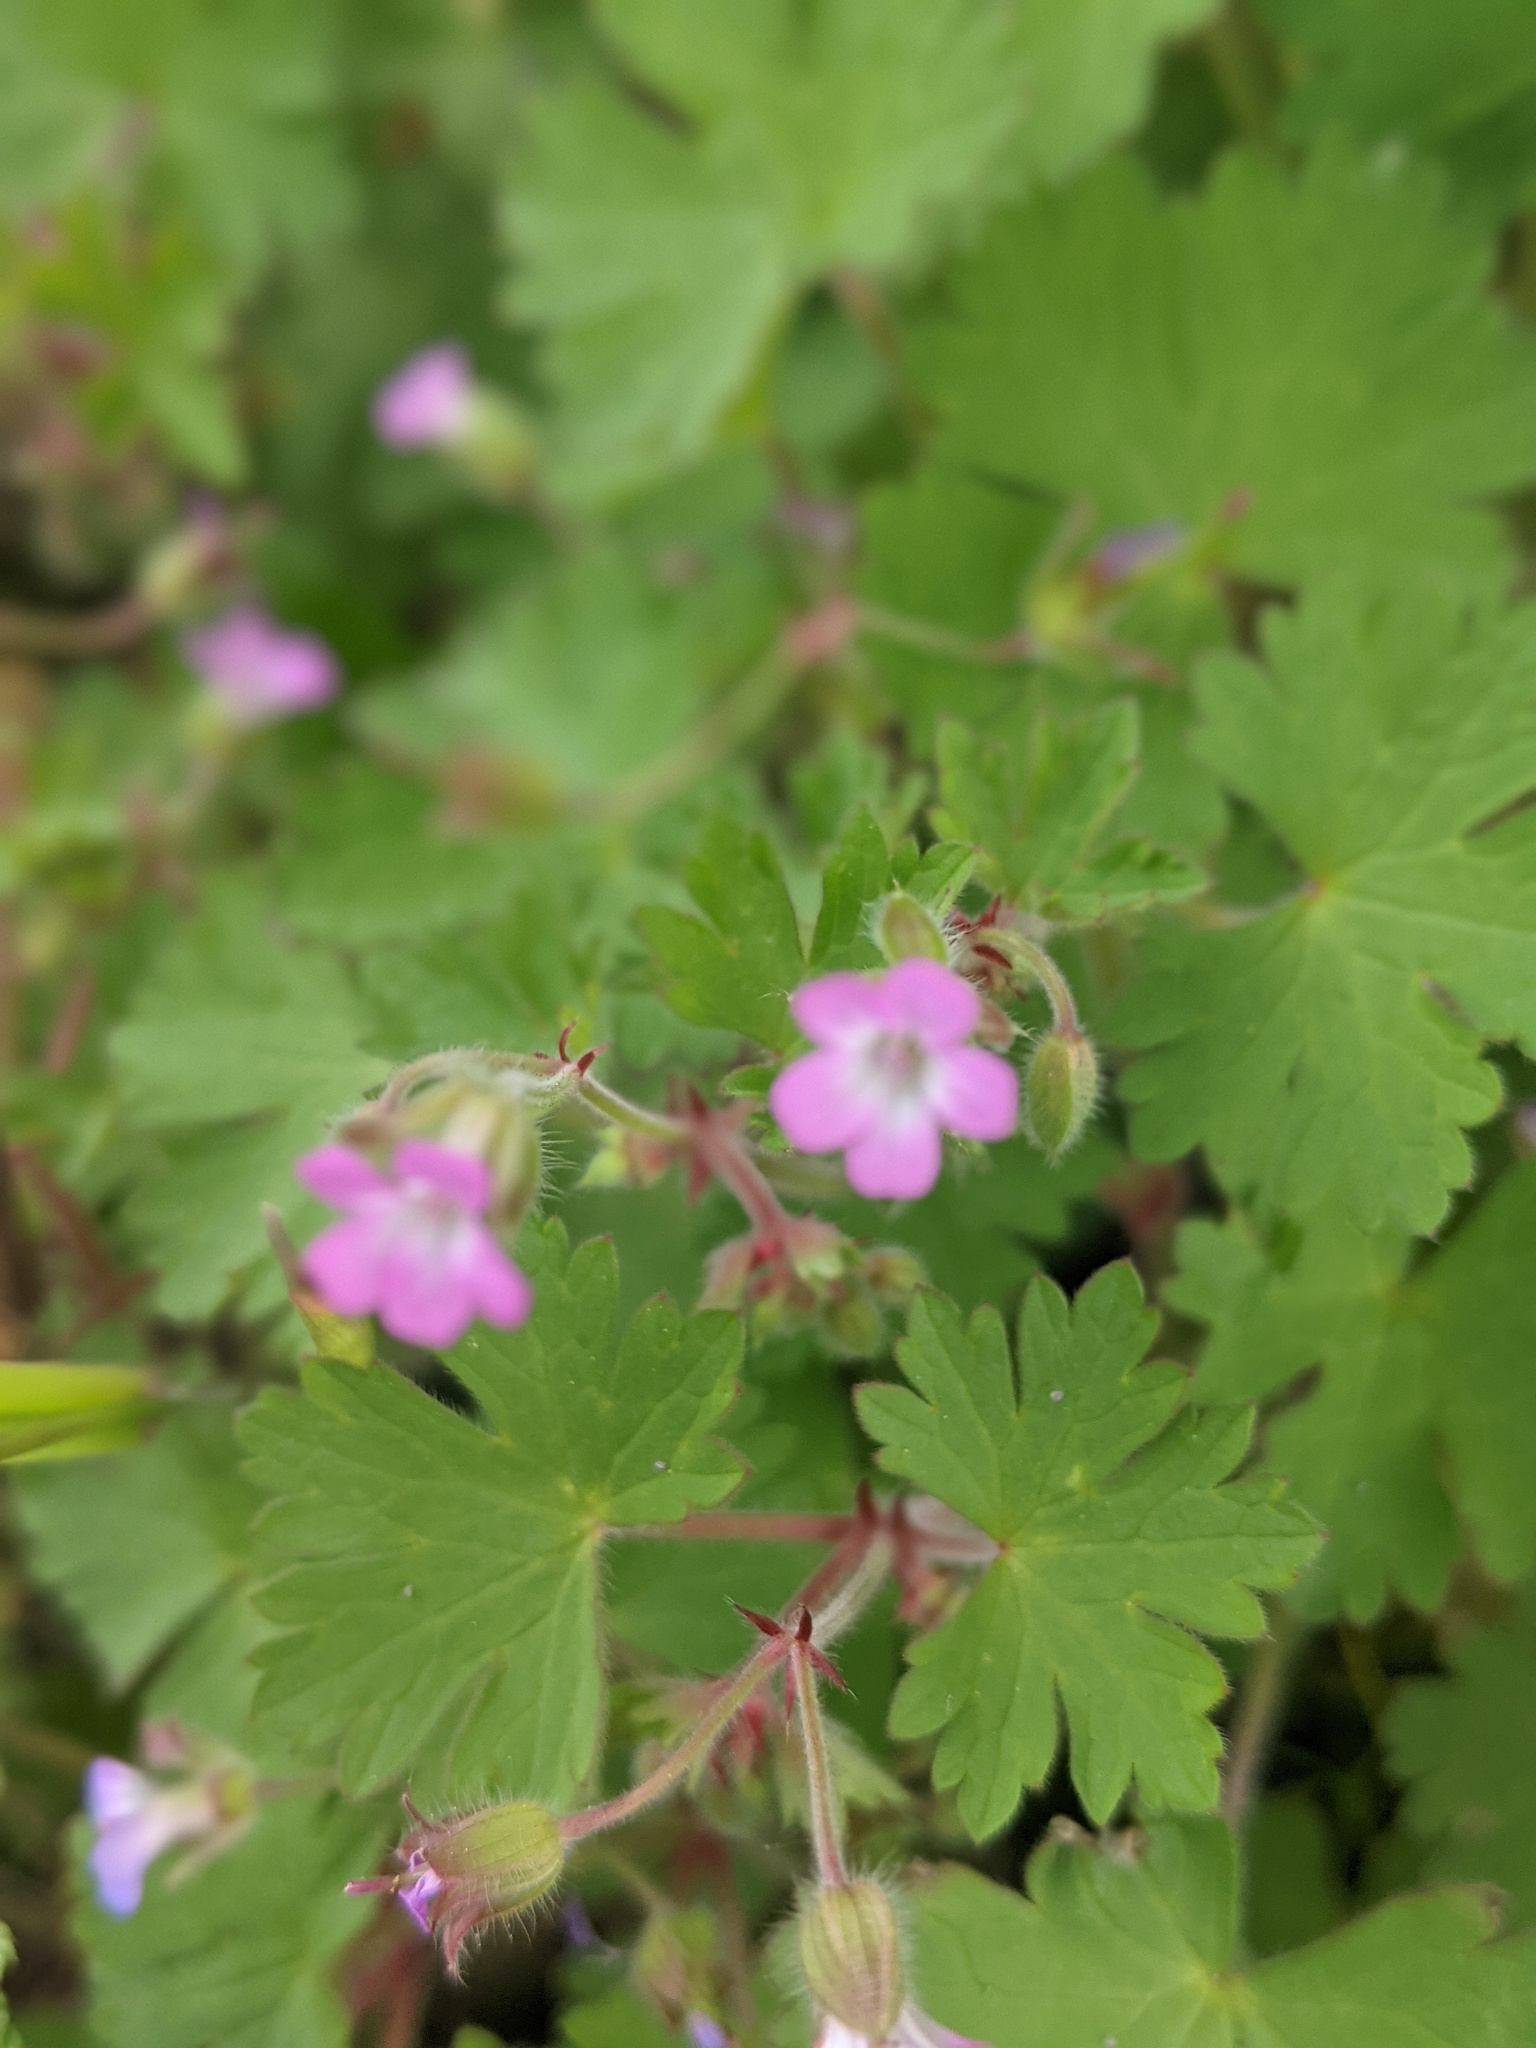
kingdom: Plantae
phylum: Tracheophyta
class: Magnoliopsida
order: Geraniales
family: Geraniaceae
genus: Geranium
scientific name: Geranium rotundifolium
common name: Round-leaved crane's-bill
